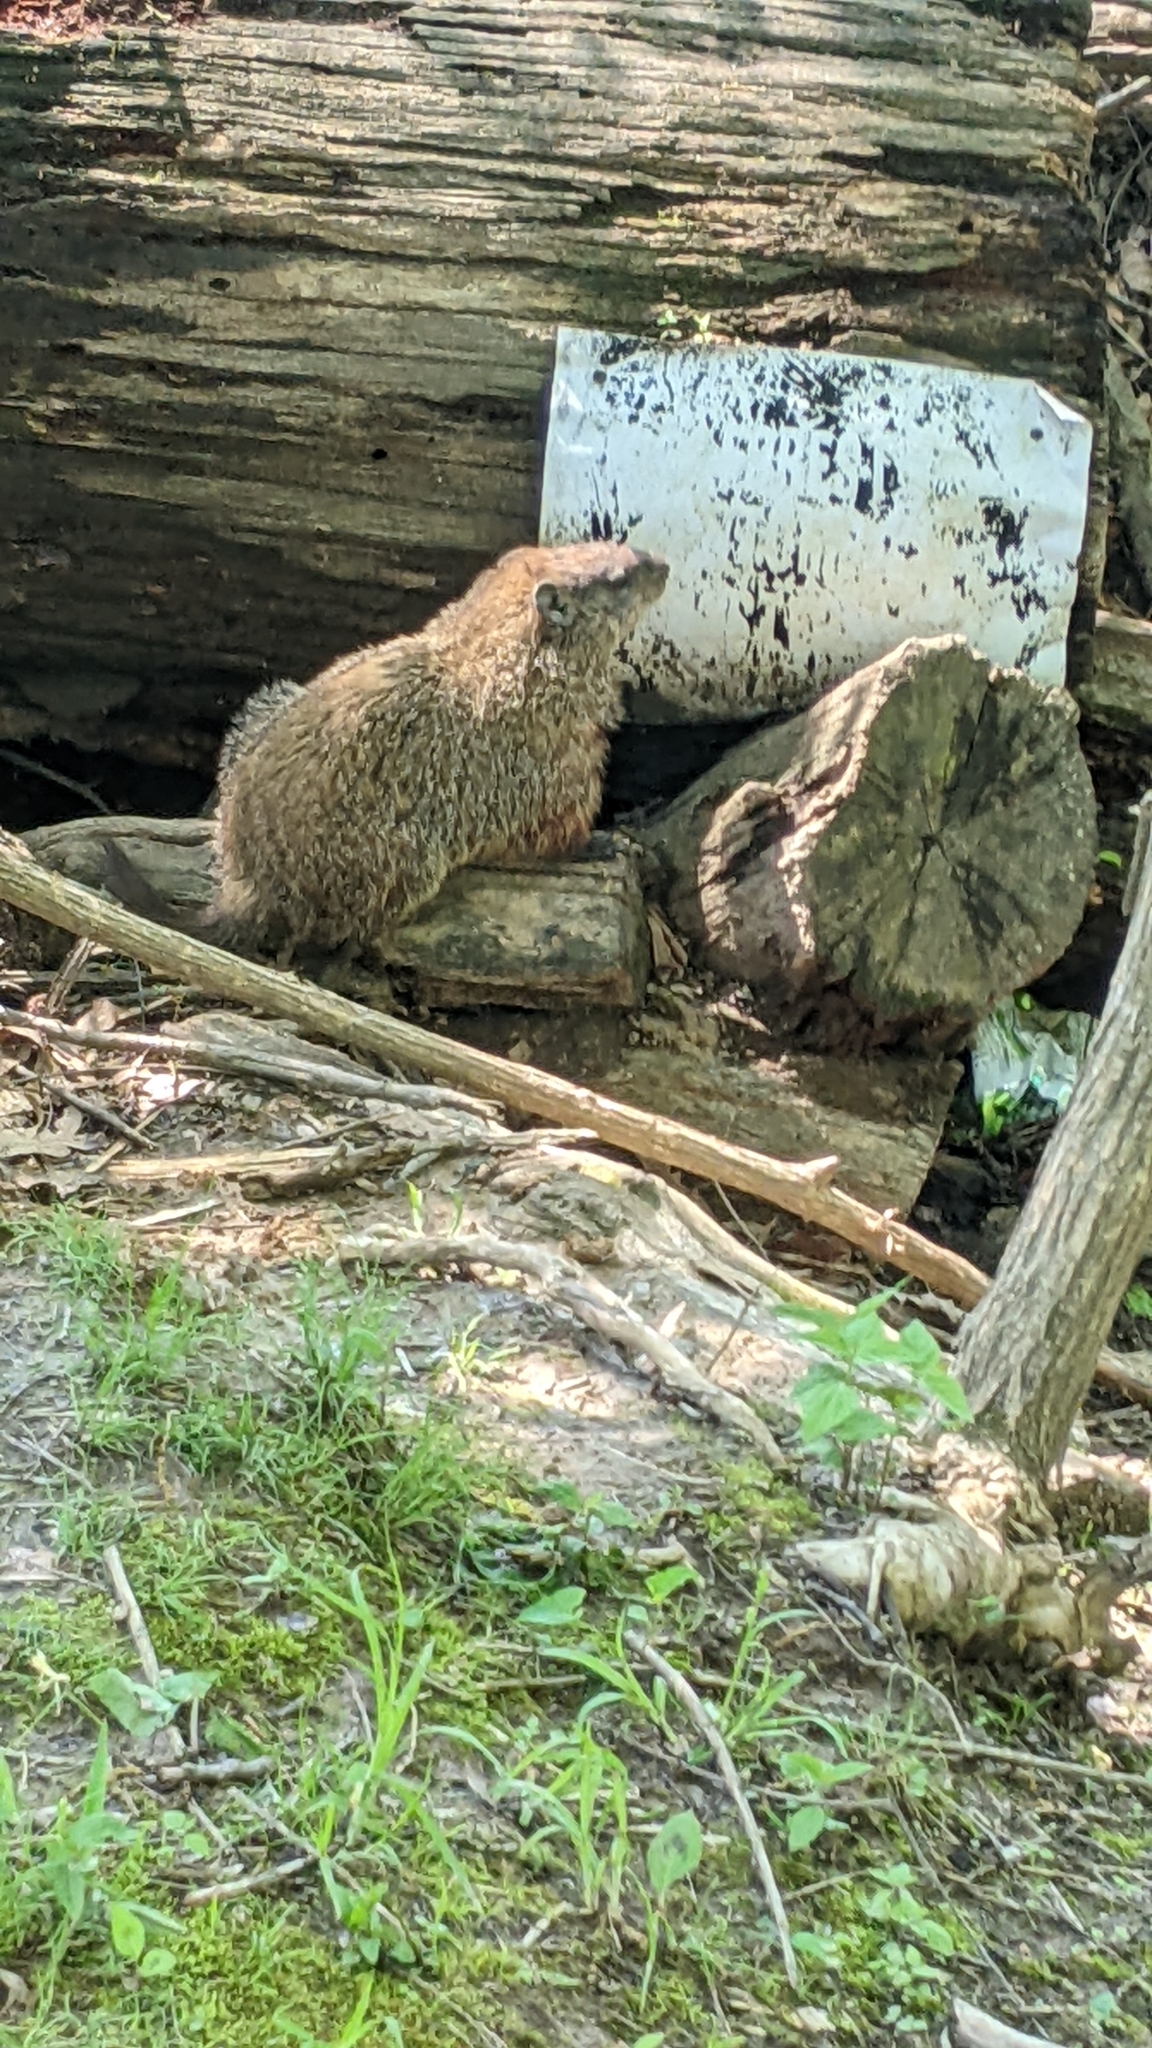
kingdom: Animalia
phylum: Chordata
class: Mammalia
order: Rodentia
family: Sciuridae
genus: Marmota
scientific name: Marmota monax
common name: Groundhog
